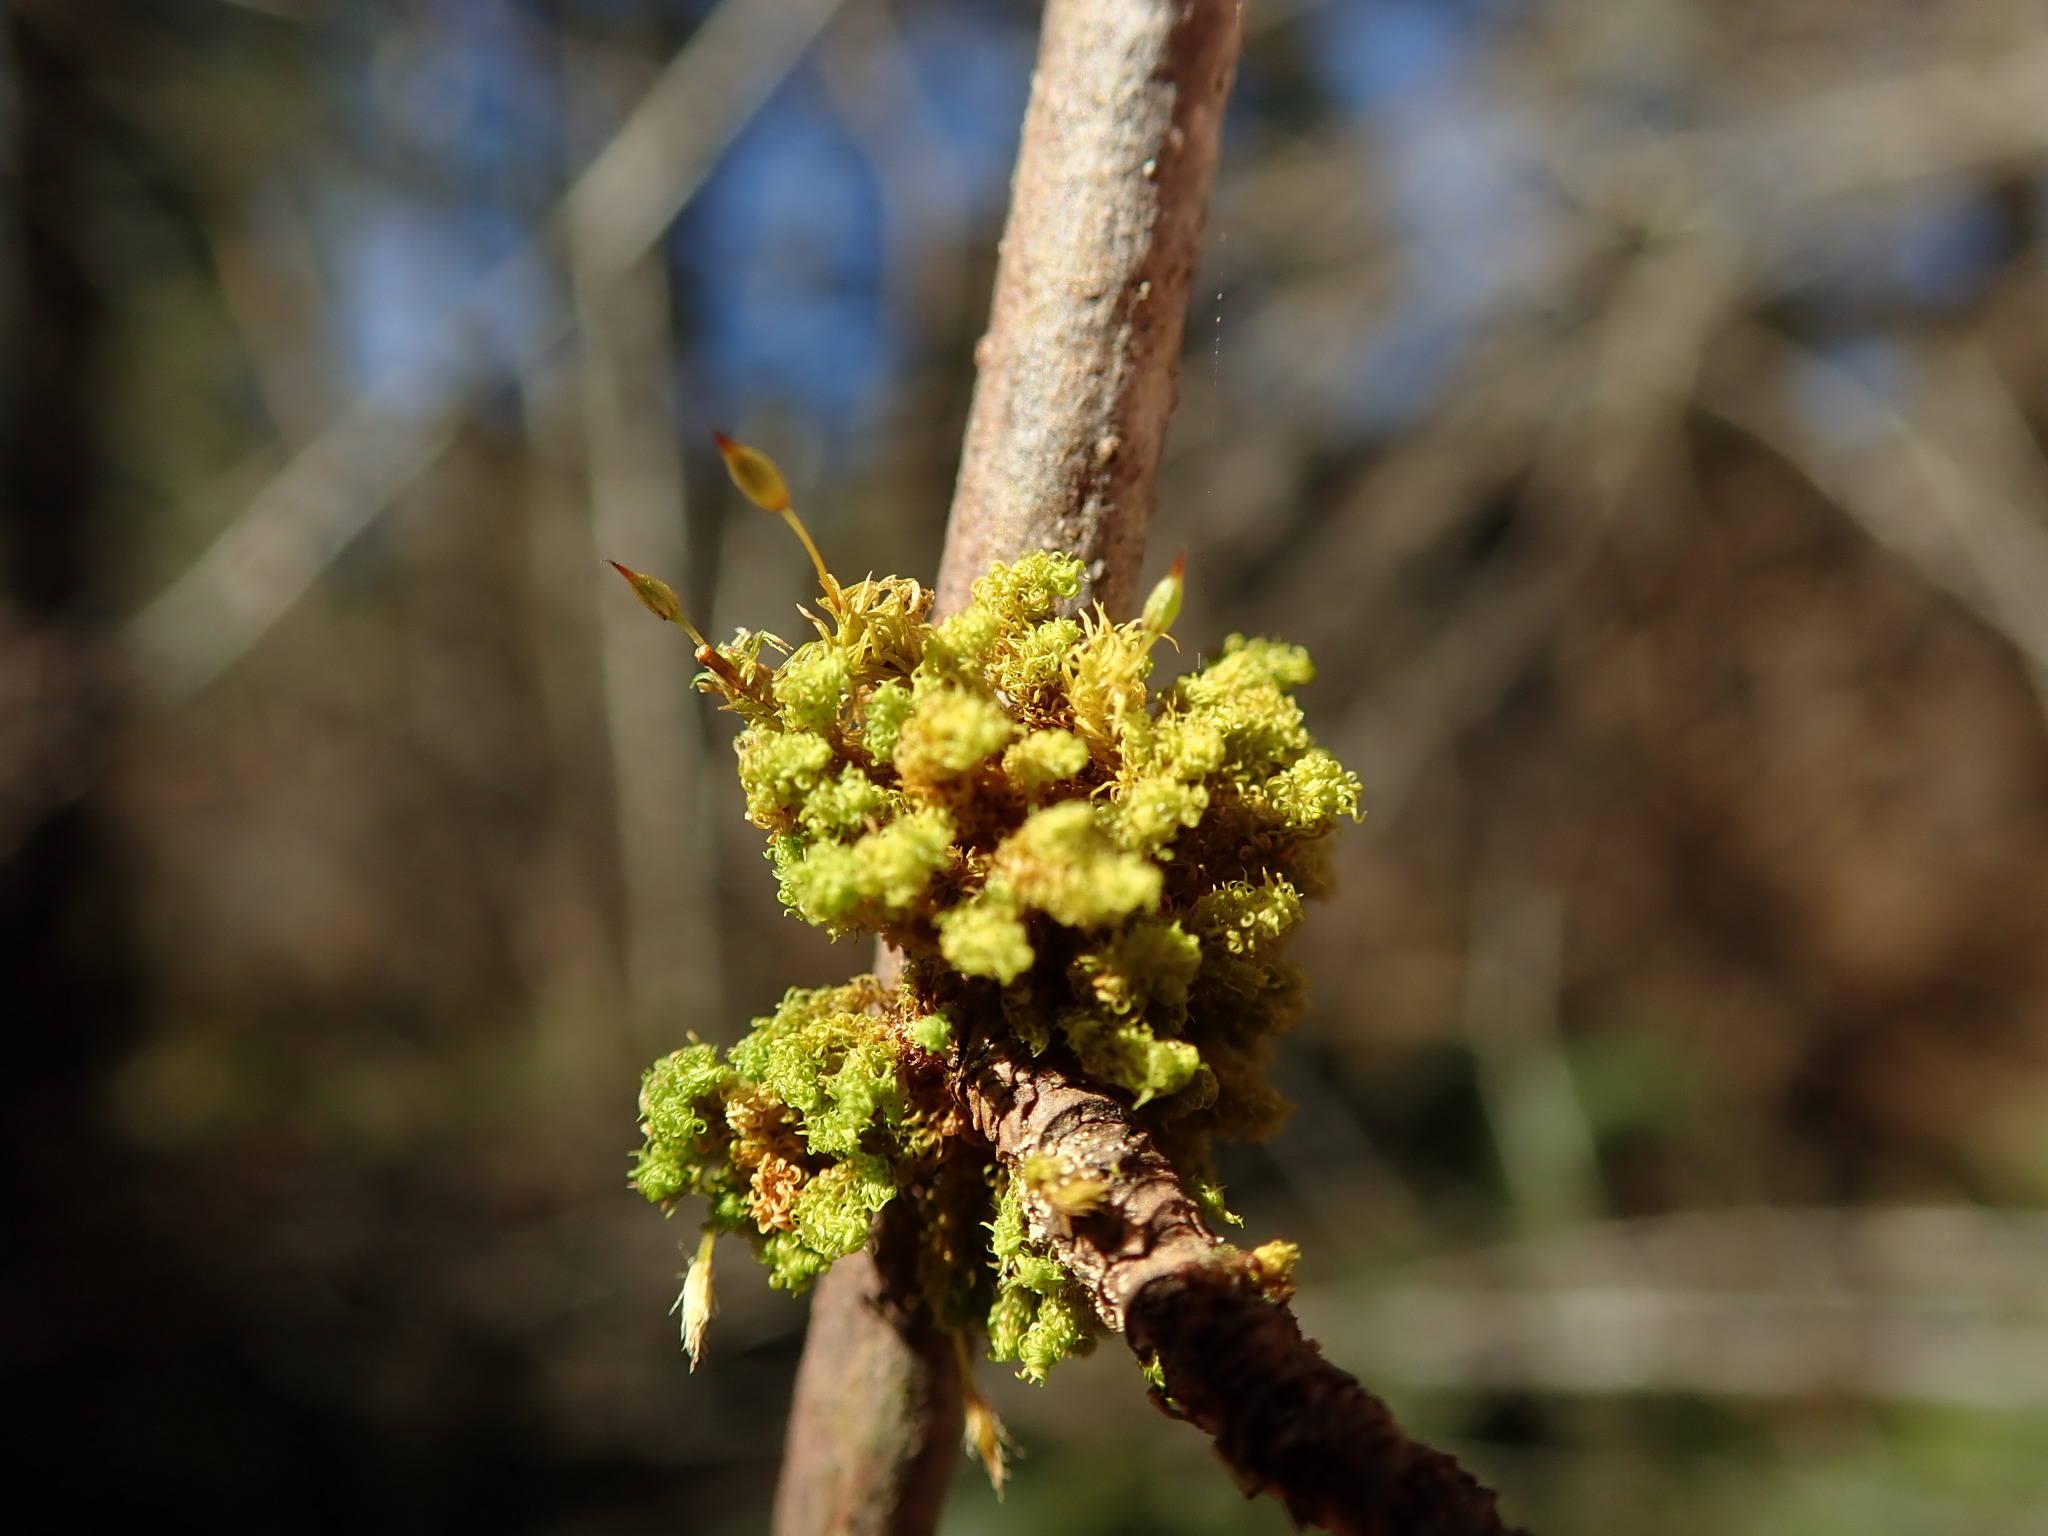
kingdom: Plantae
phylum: Bryophyta
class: Bryopsida
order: Orthotrichales
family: Orthotrichaceae
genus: Ulota
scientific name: Ulota obtusiuscula
